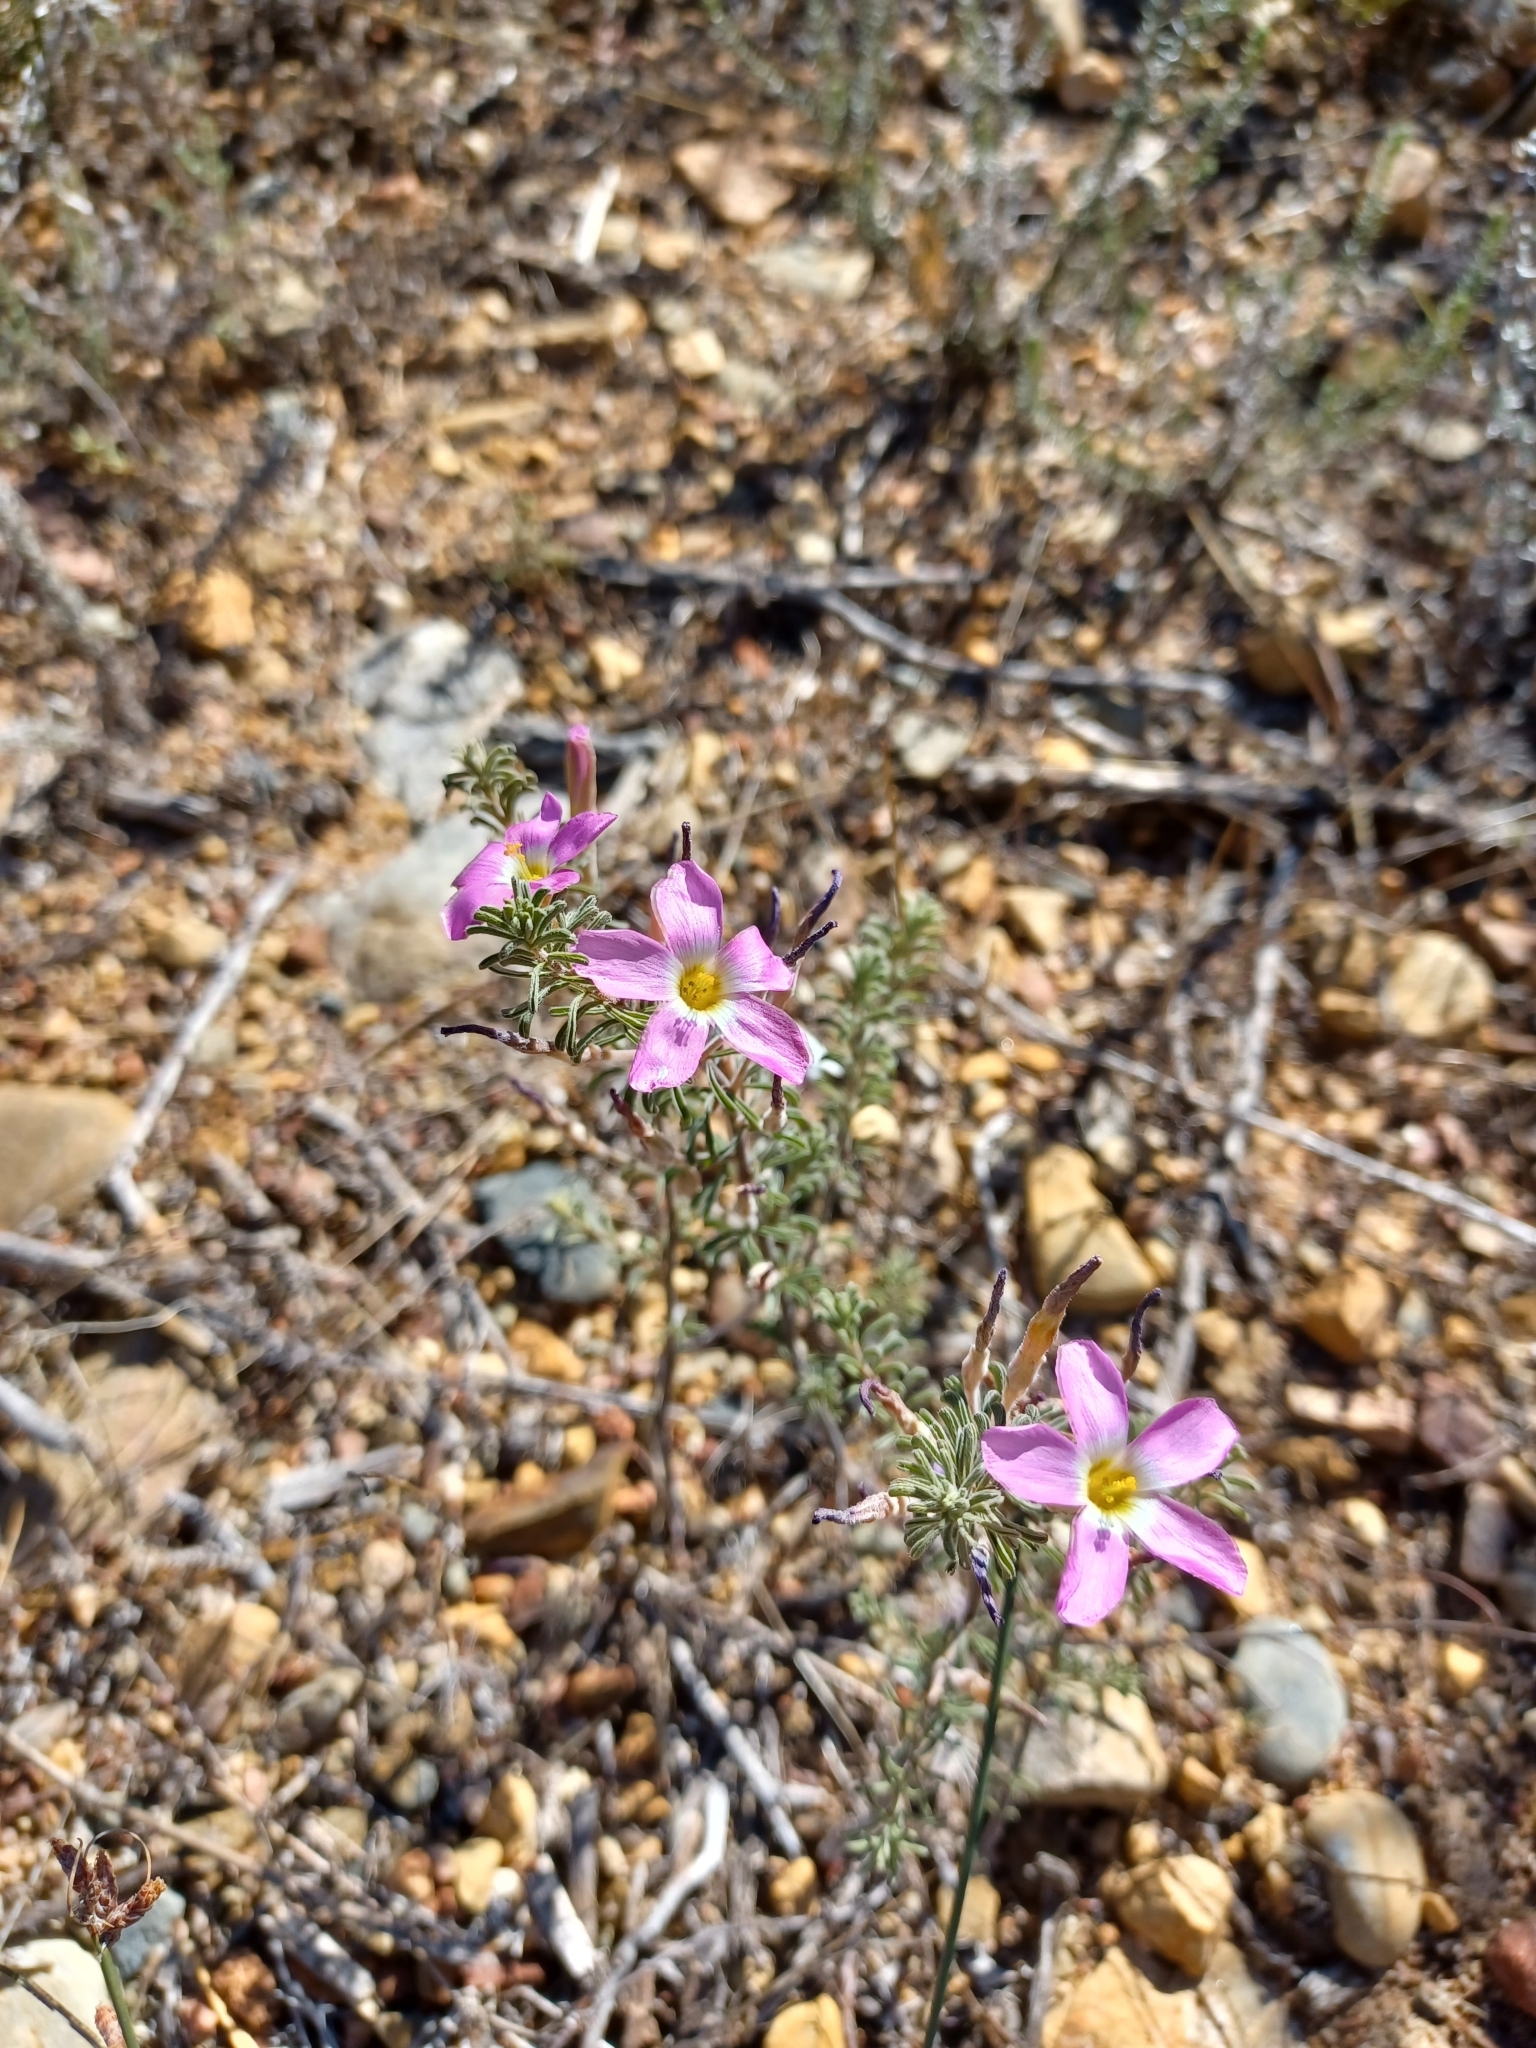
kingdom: Plantae
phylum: Tracheophyta
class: Magnoliopsida
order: Oxalidales
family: Oxalidaceae
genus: Oxalis
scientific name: Oxalis hirta
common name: Tropical woodsorrel
